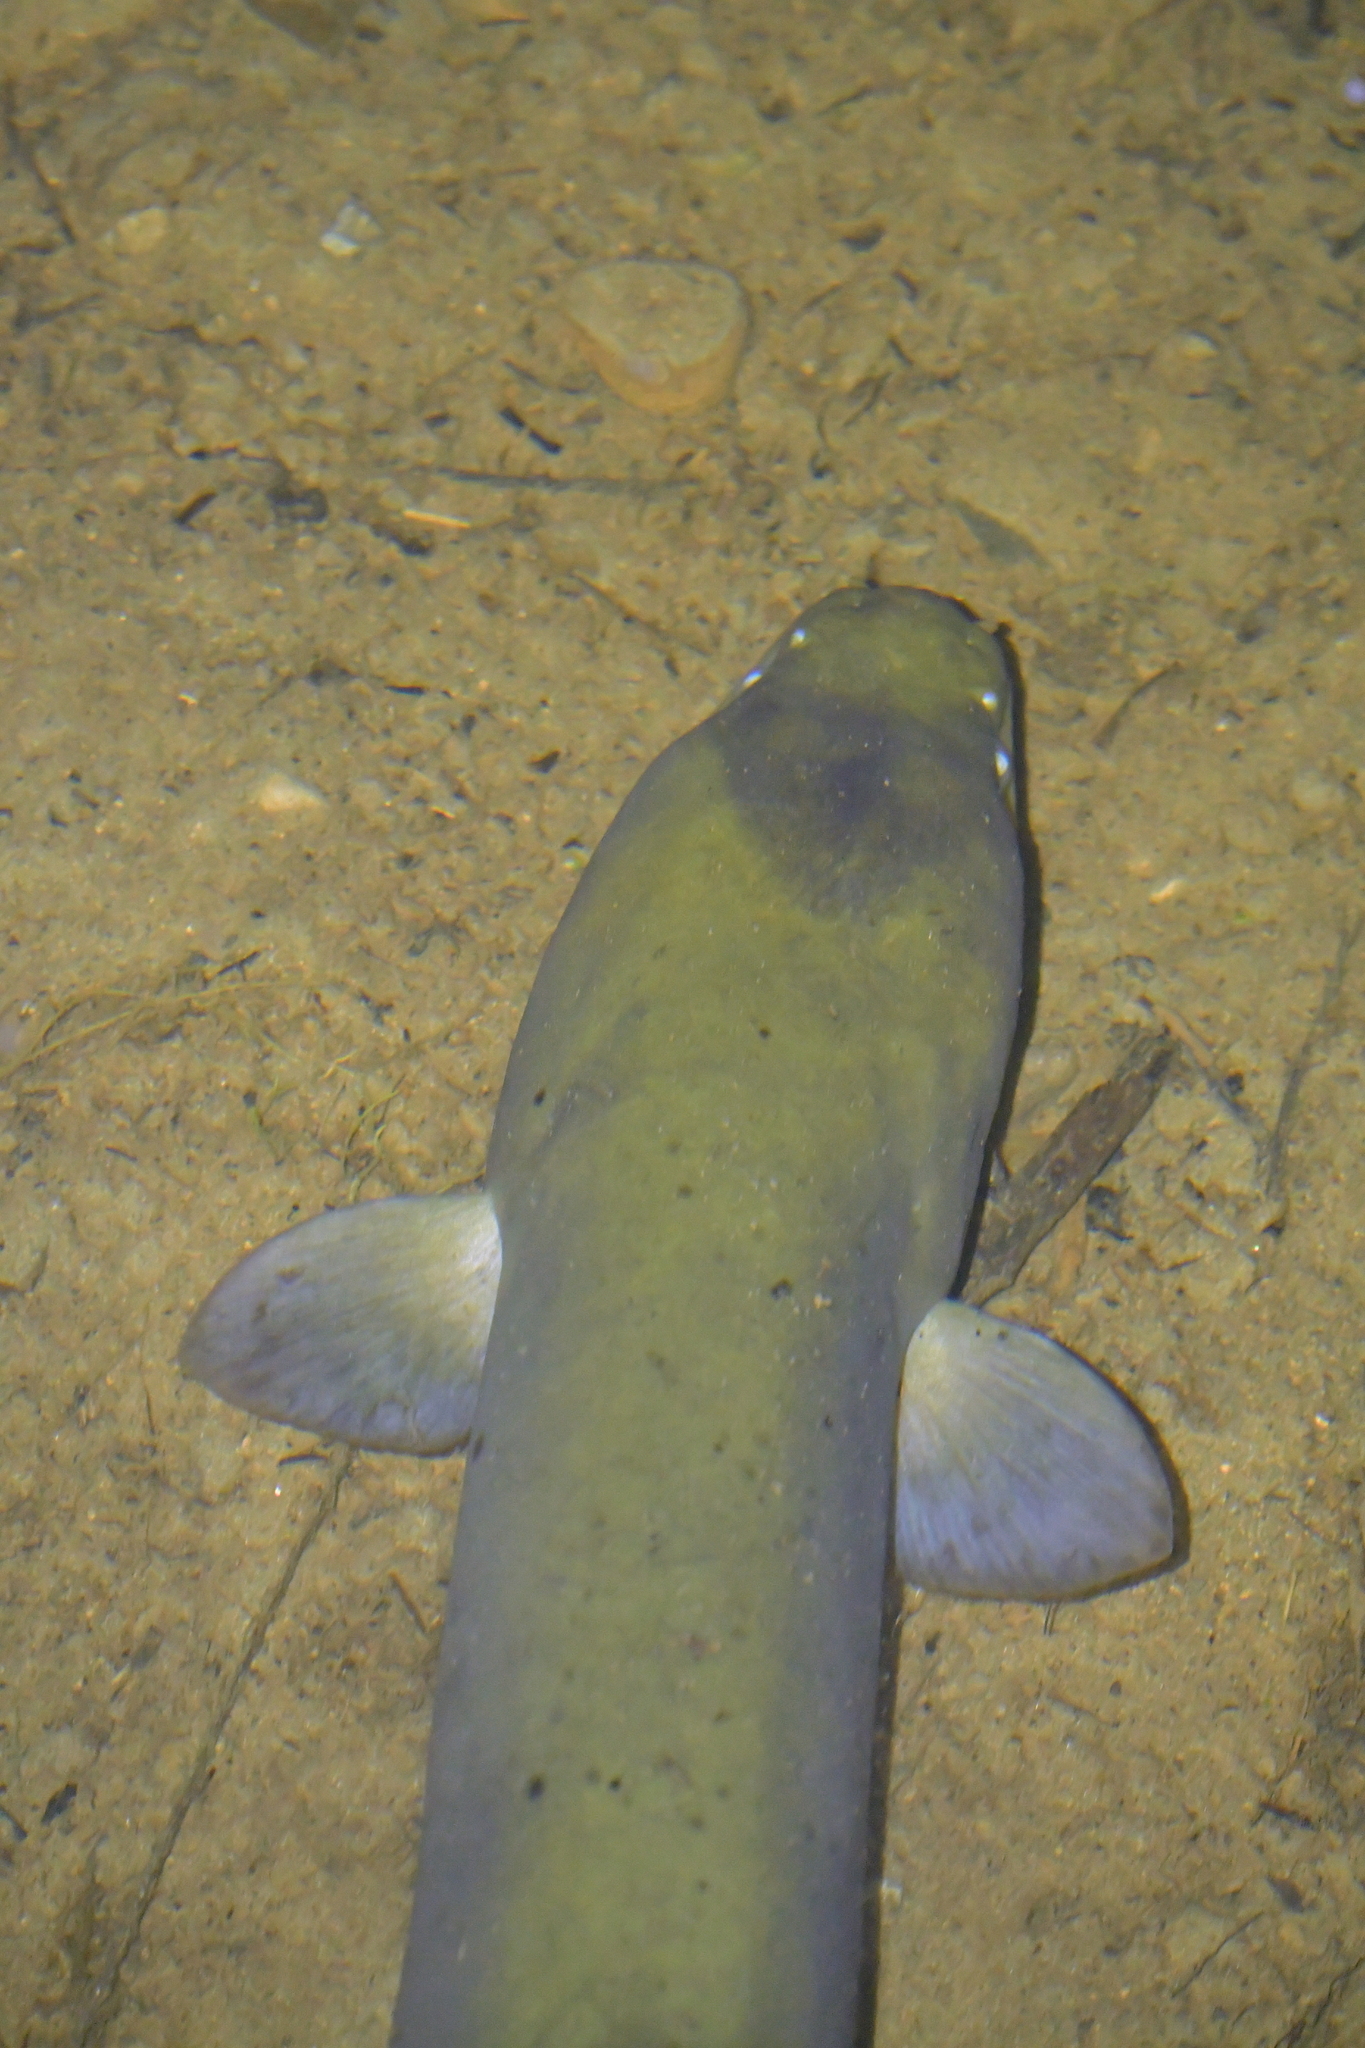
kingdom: Animalia
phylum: Chordata
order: Anguilliformes
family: Anguillidae
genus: Anguilla
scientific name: Anguilla dieffenbachii
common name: New zealand longfin eel
